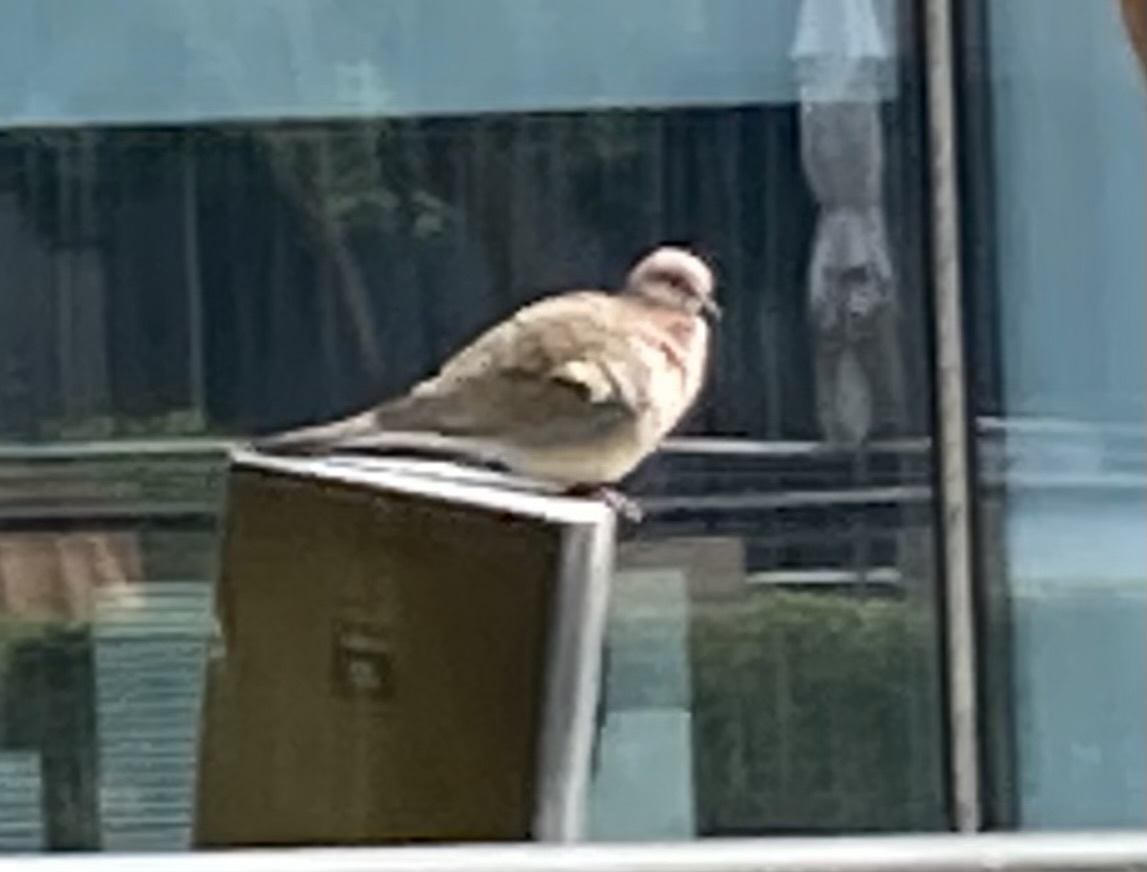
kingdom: Animalia
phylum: Chordata
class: Aves
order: Columbiformes
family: Columbidae
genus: Spilopelia
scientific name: Spilopelia senegalensis
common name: Laughing dove
